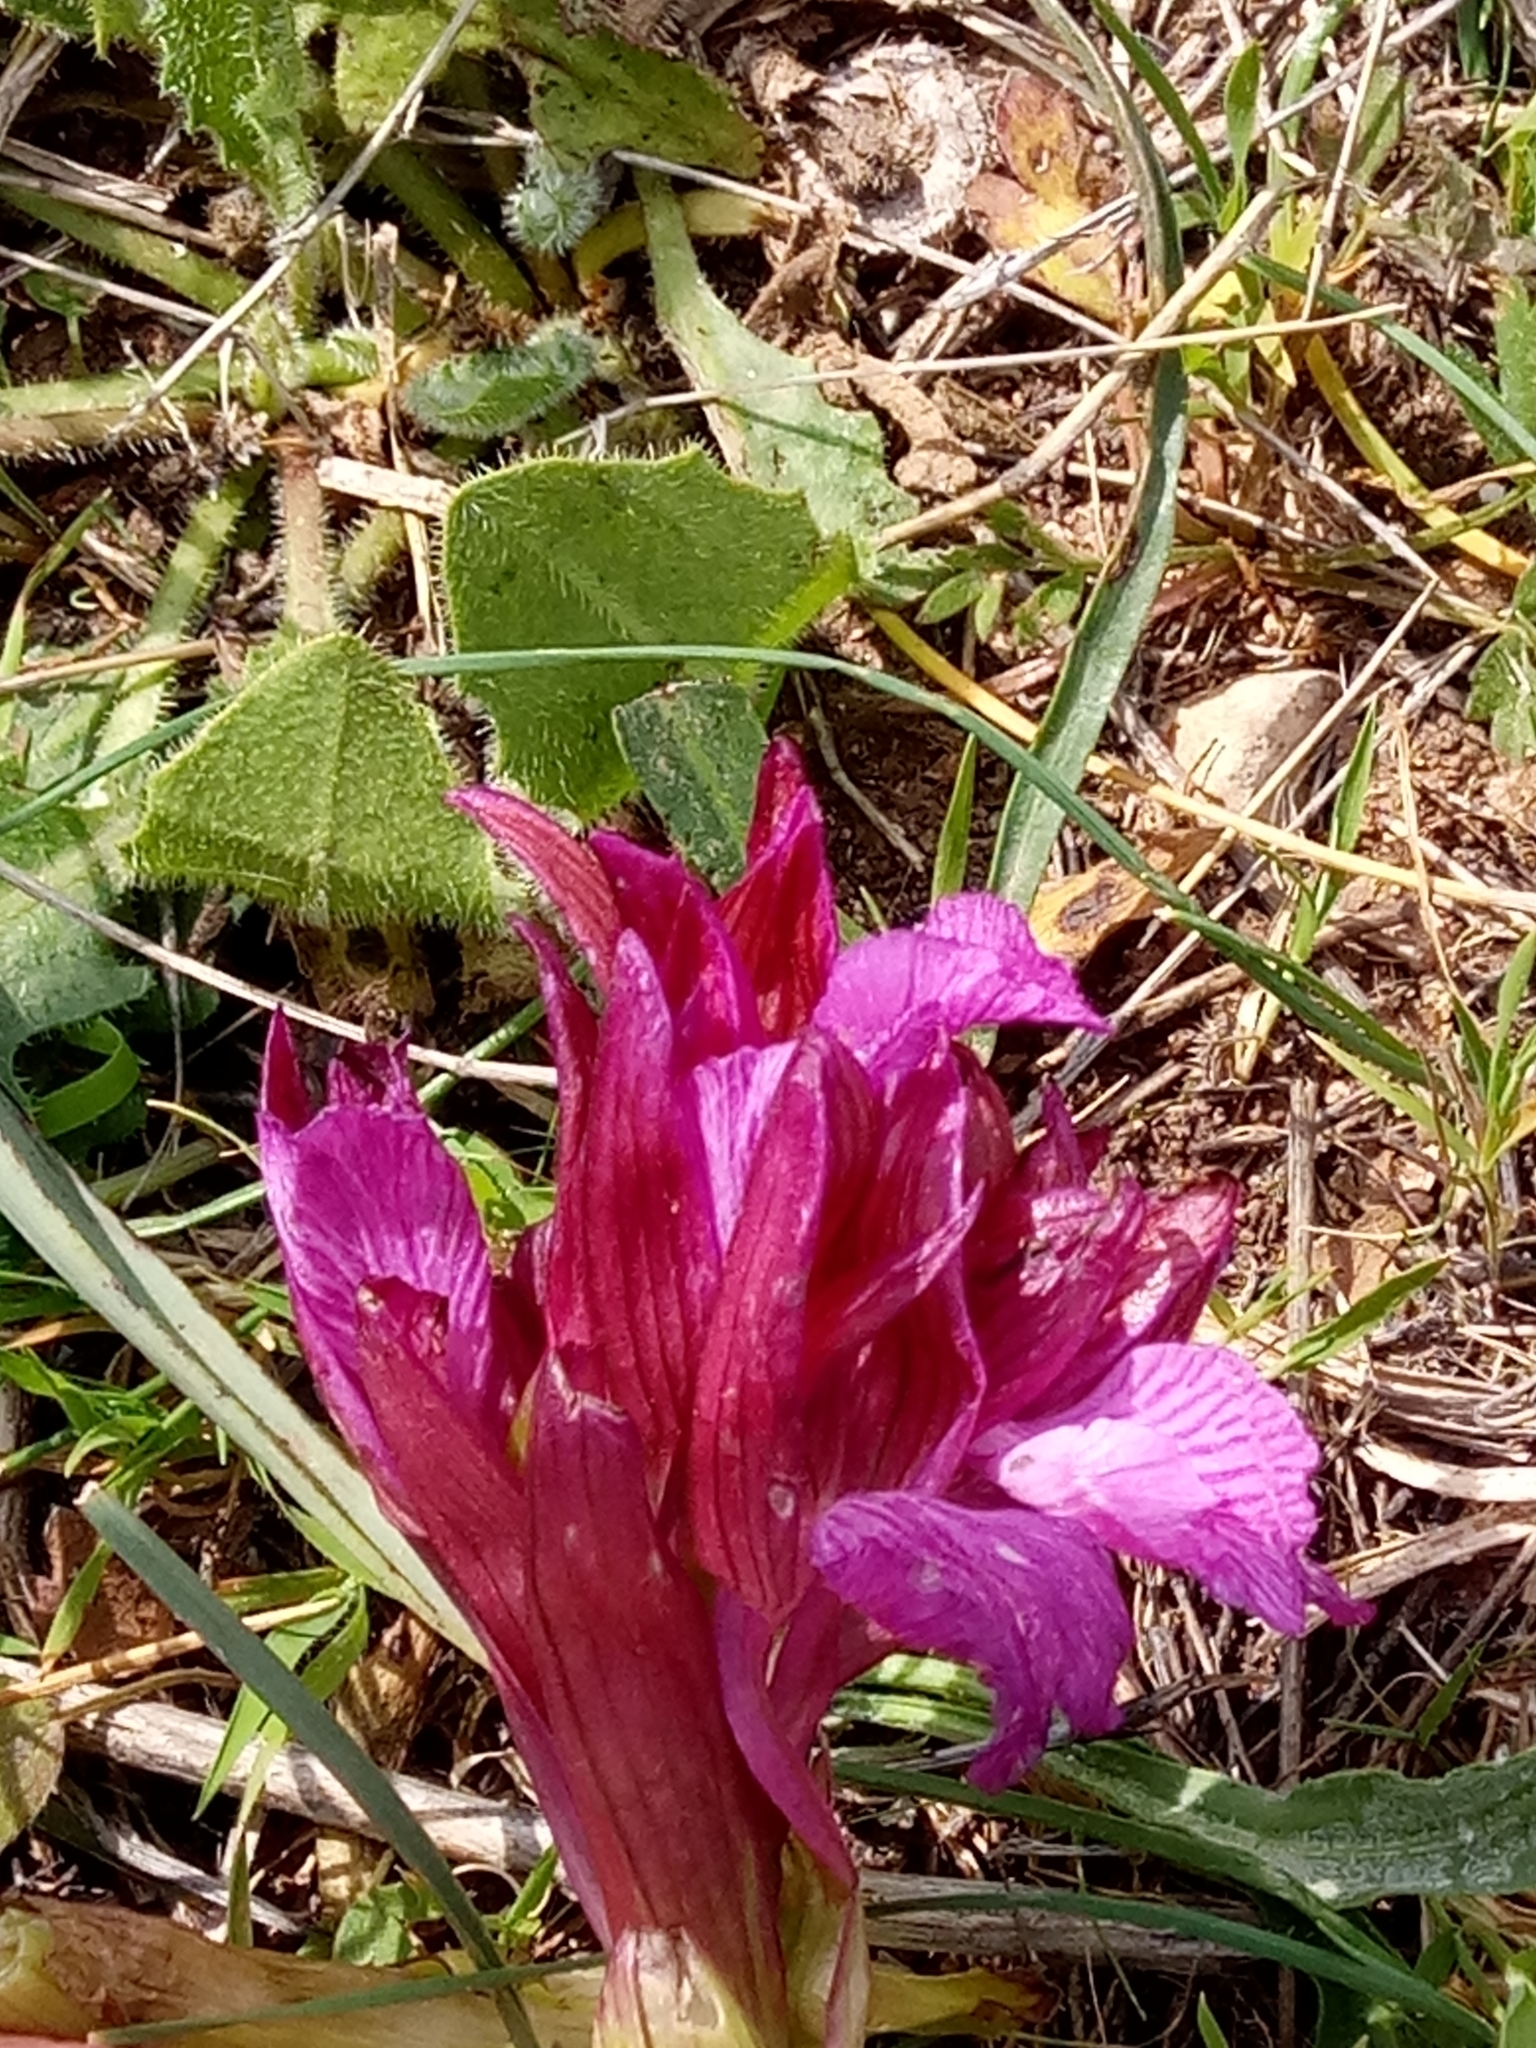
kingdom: Plantae
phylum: Tracheophyta
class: Liliopsida
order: Asparagales
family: Orchidaceae
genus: Anacamptis
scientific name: Anacamptis papilionacea
